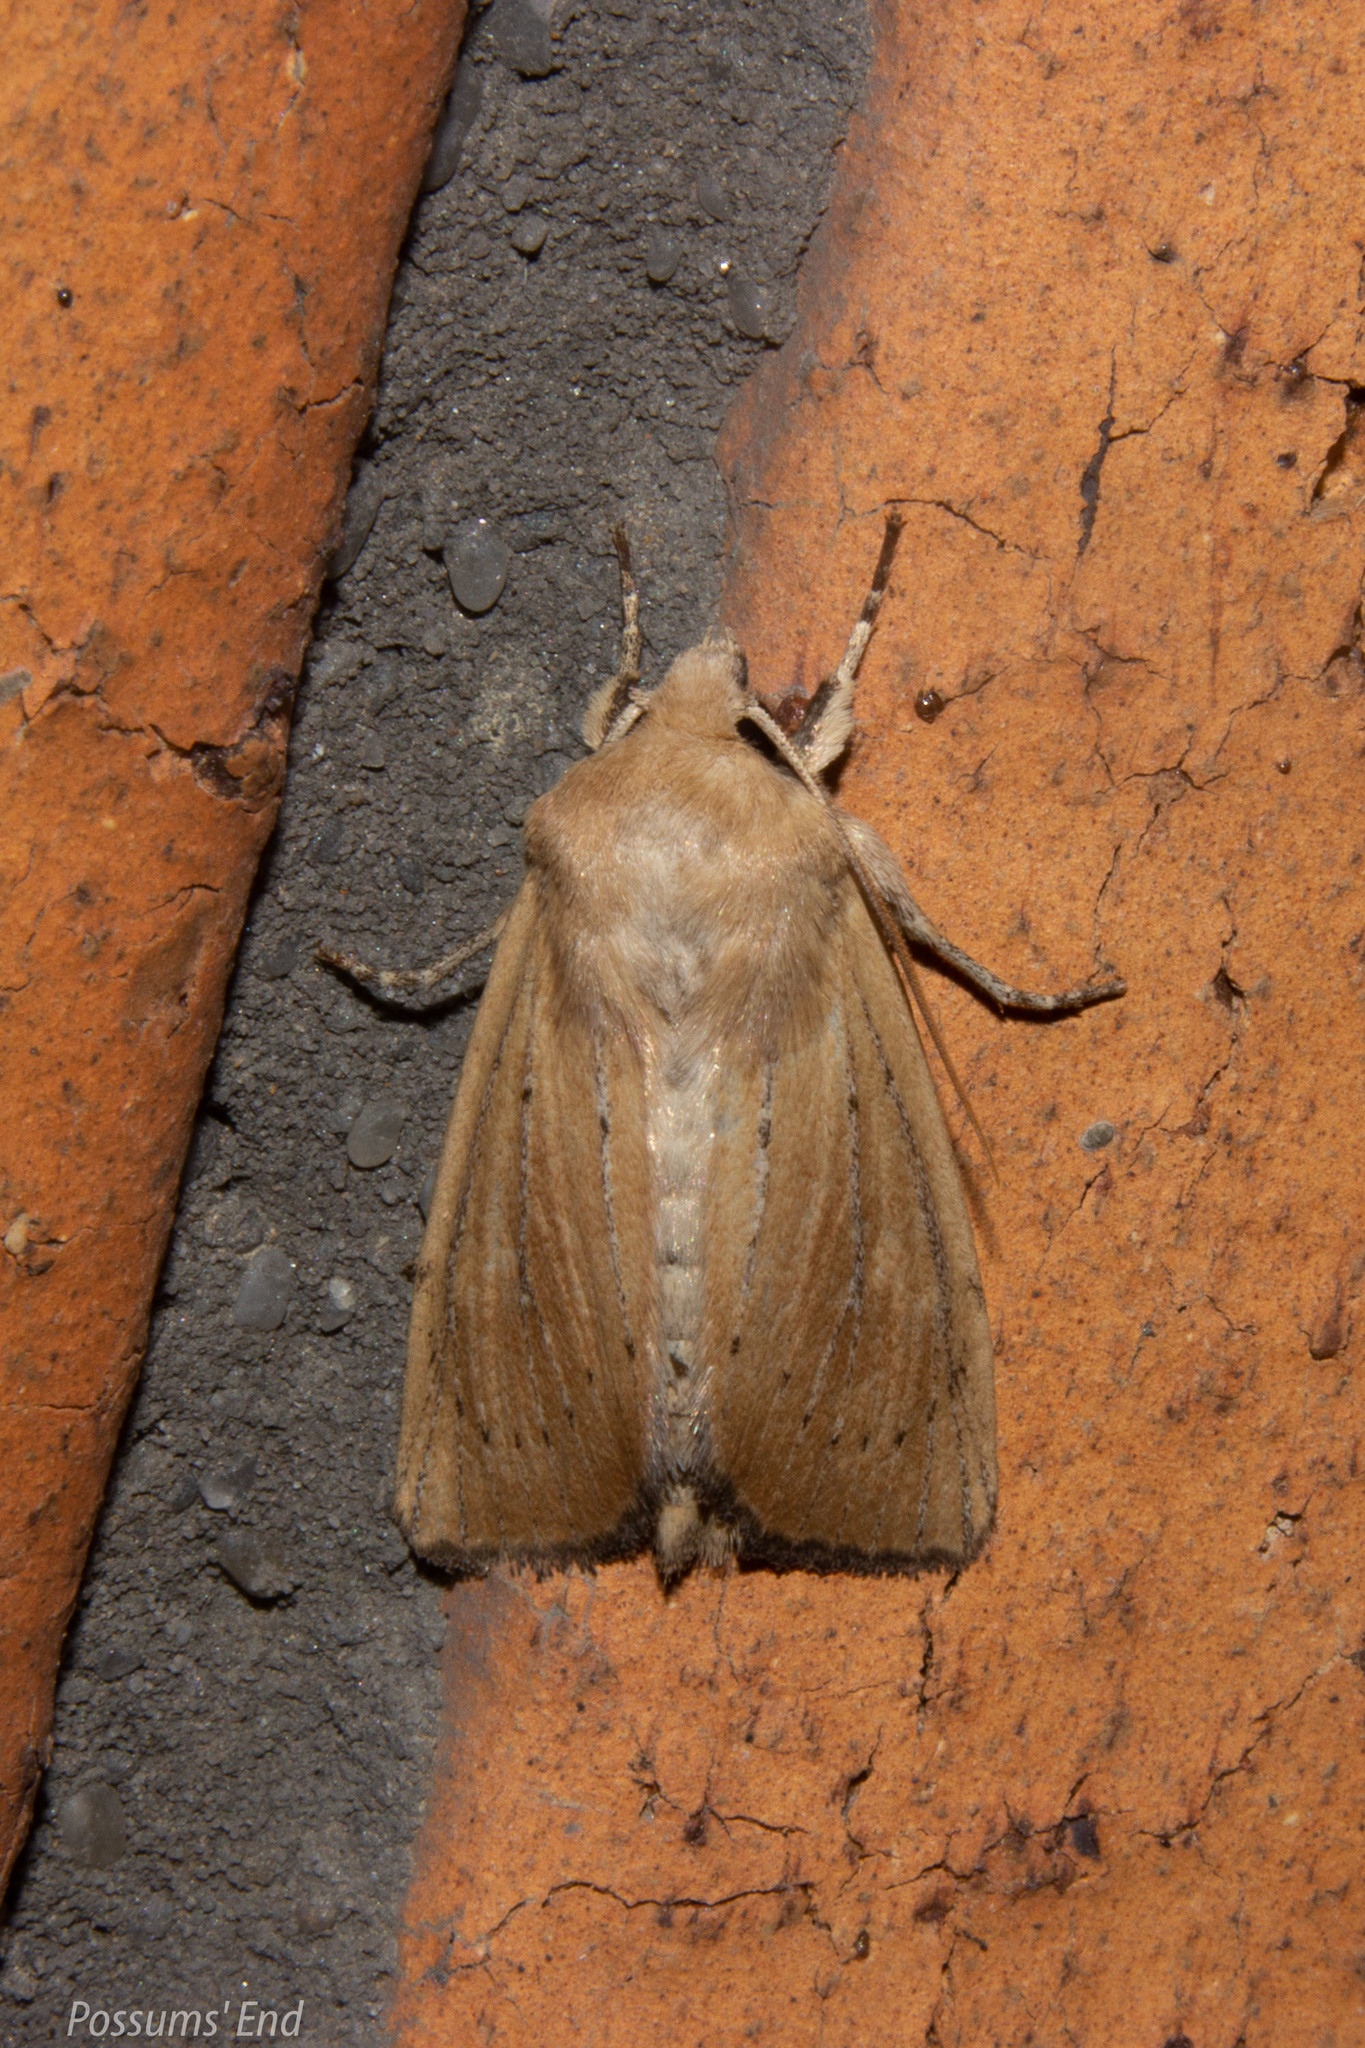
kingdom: Animalia
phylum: Arthropoda
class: Insecta
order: Lepidoptera
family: Noctuidae
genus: Ichneutica
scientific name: Ichneutica blenheimensis
